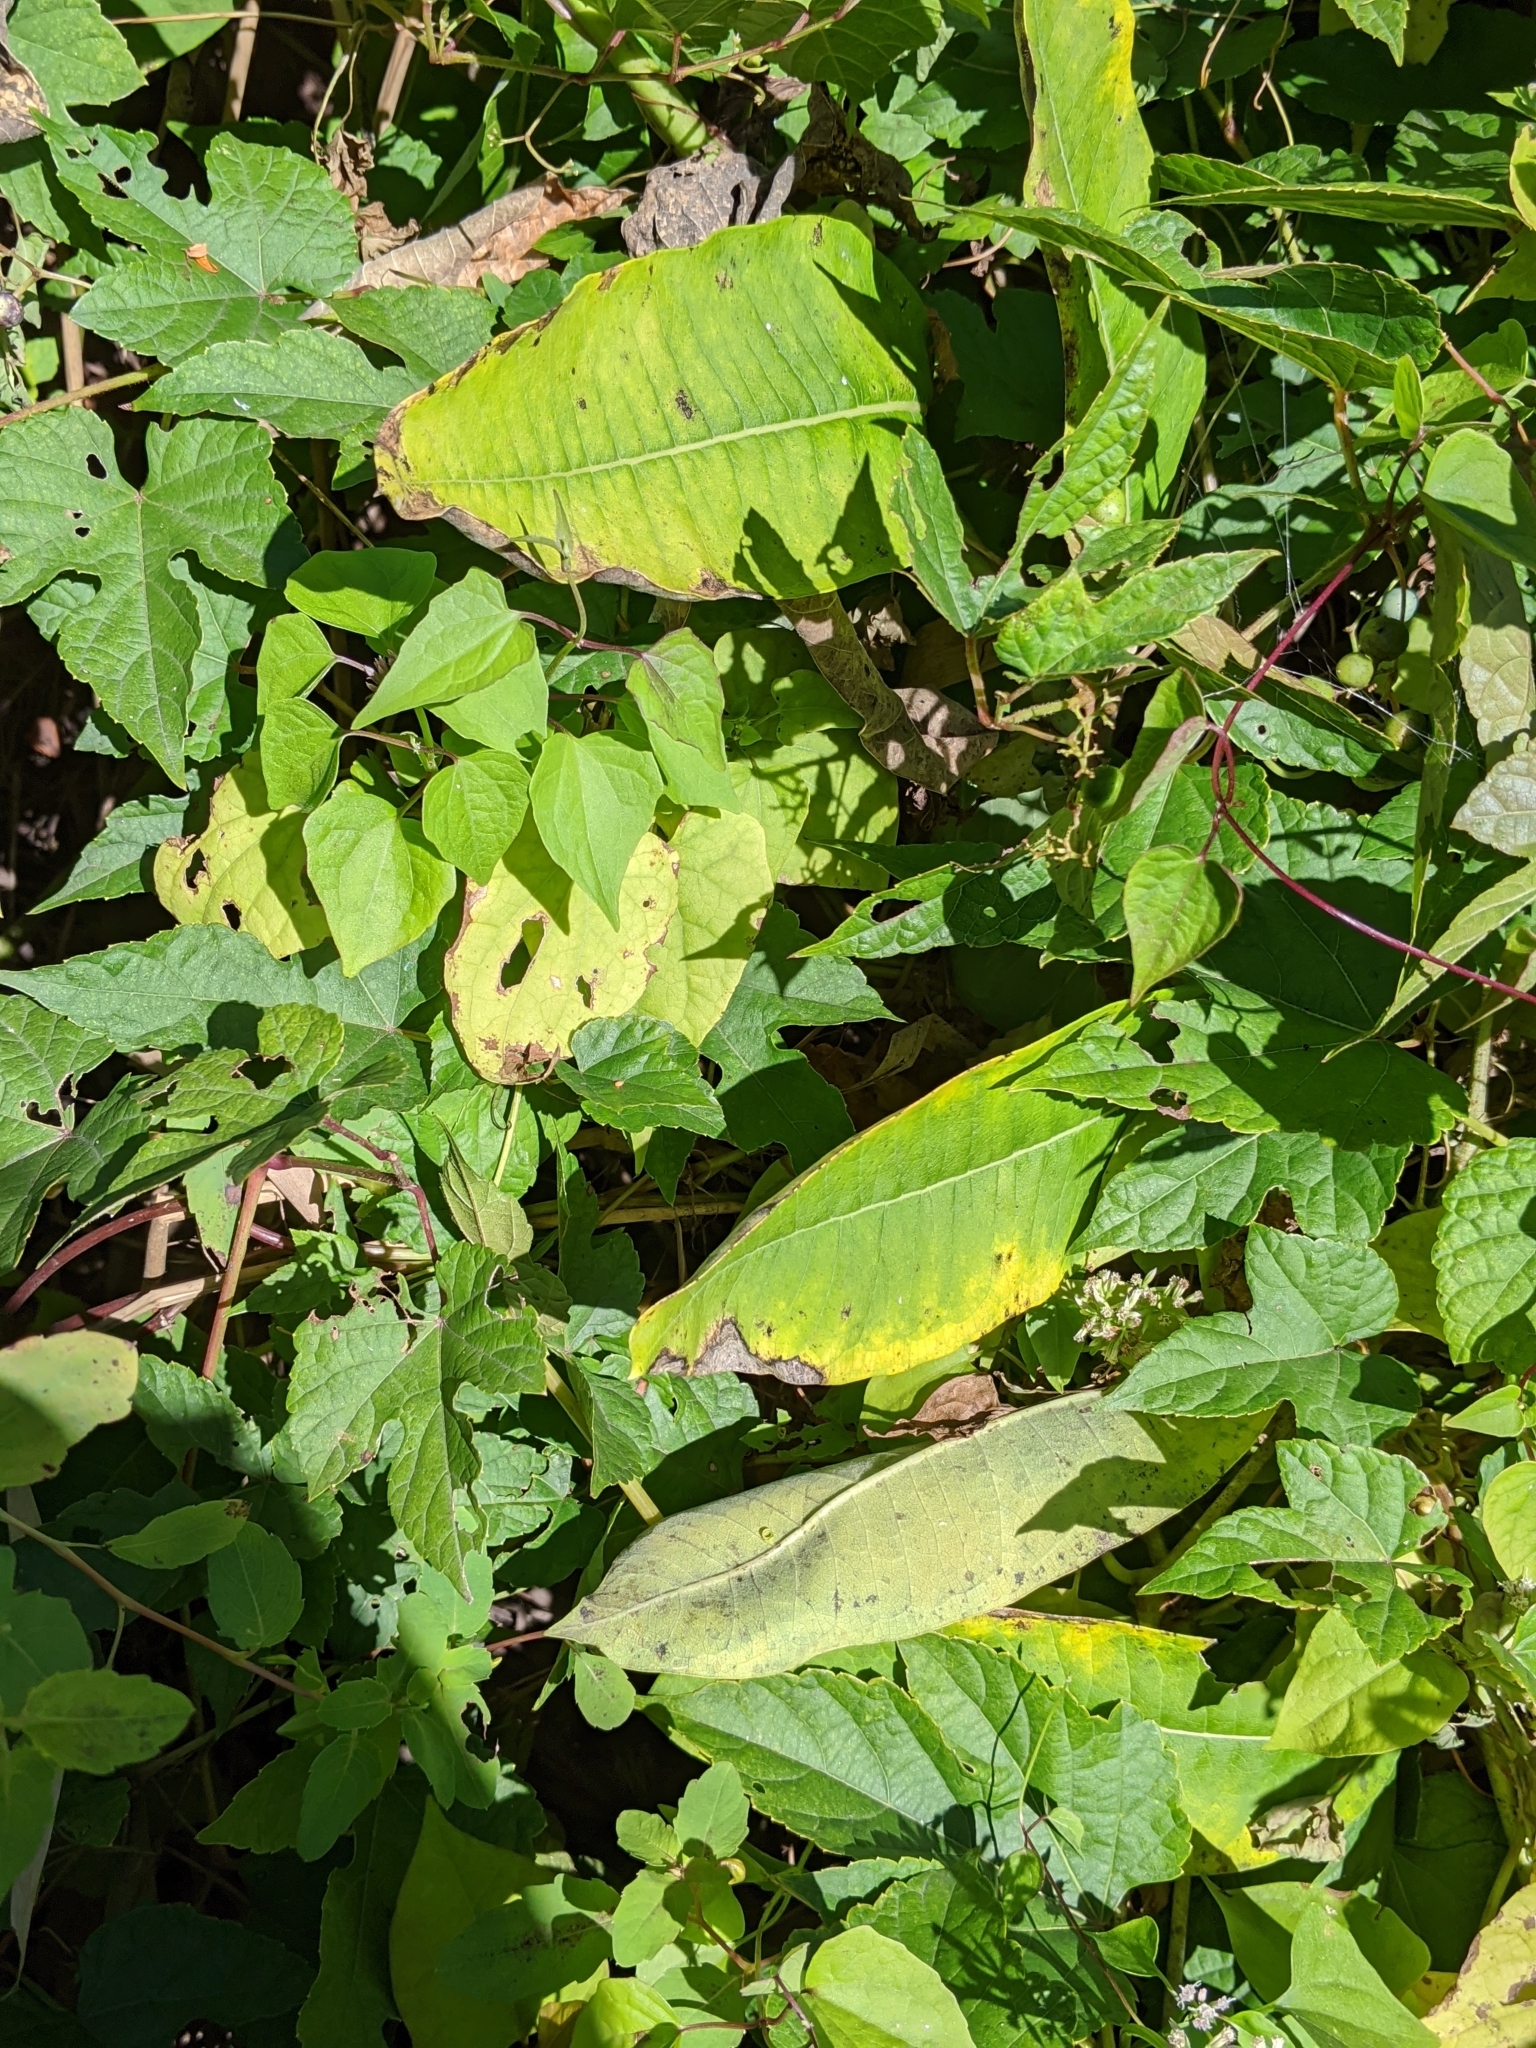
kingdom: Plantae
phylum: Tracheophyta
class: Magnoliopsida
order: Gentianales
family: Apocynaceae
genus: Asclepias
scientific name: Asclepias syriaca
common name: Common milkweed
